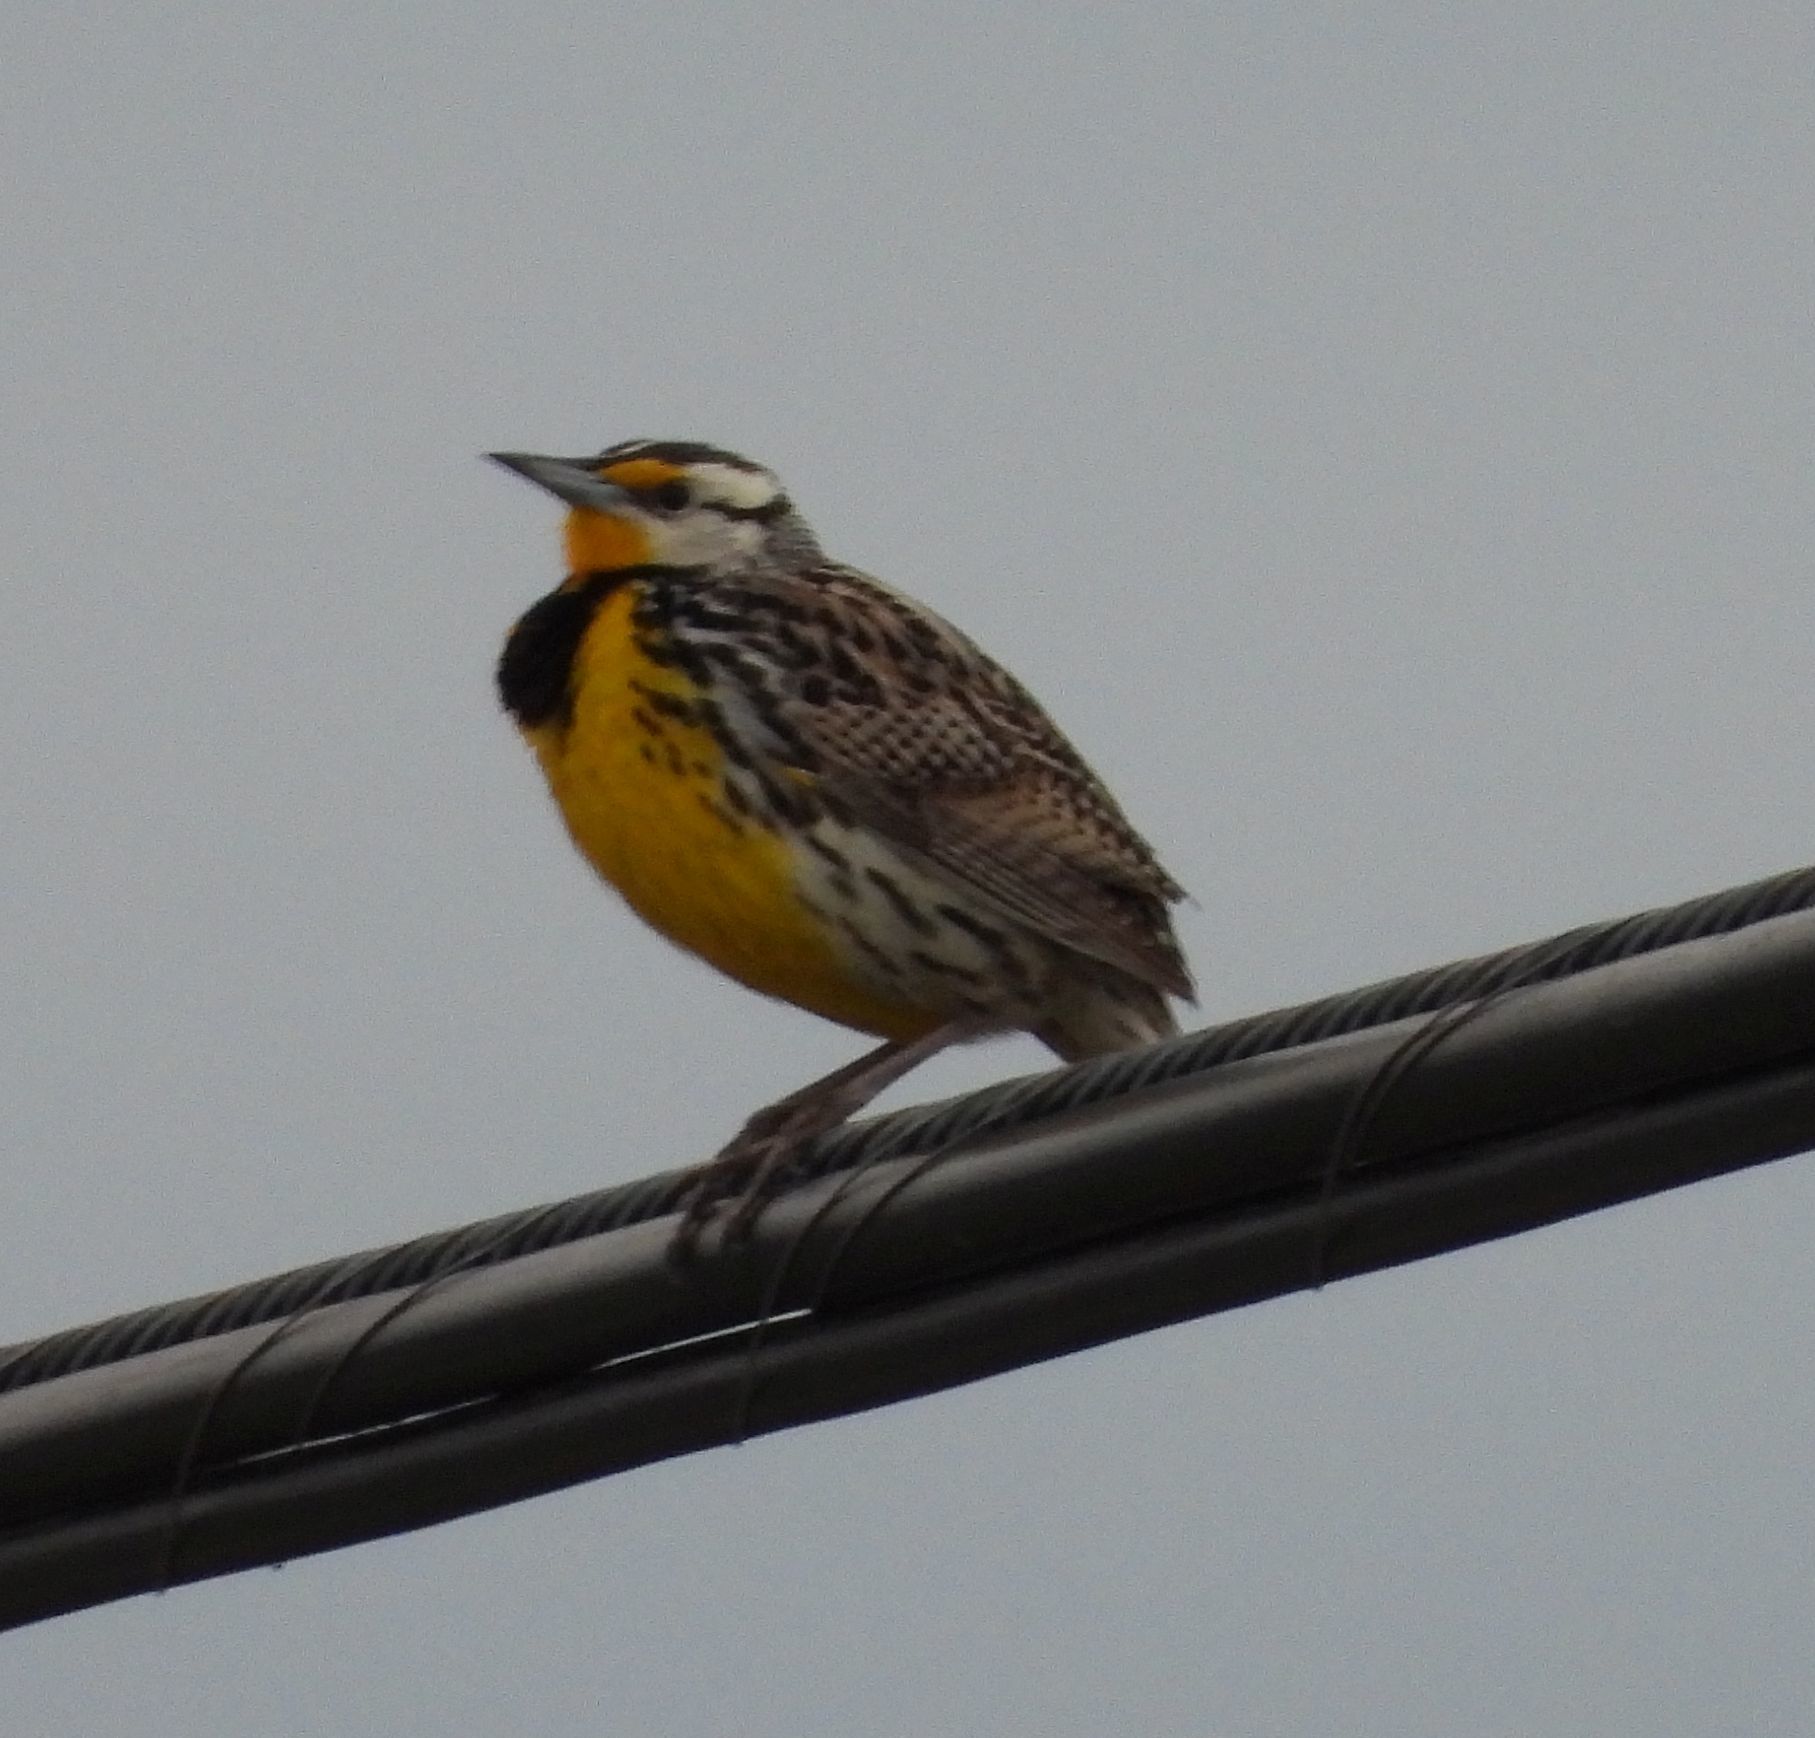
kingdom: Animalia
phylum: Chordata
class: Aves
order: Passeriformes
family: Icteridae
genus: Sturnella
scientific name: Sturnella magna
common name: Eastern meadowlark
